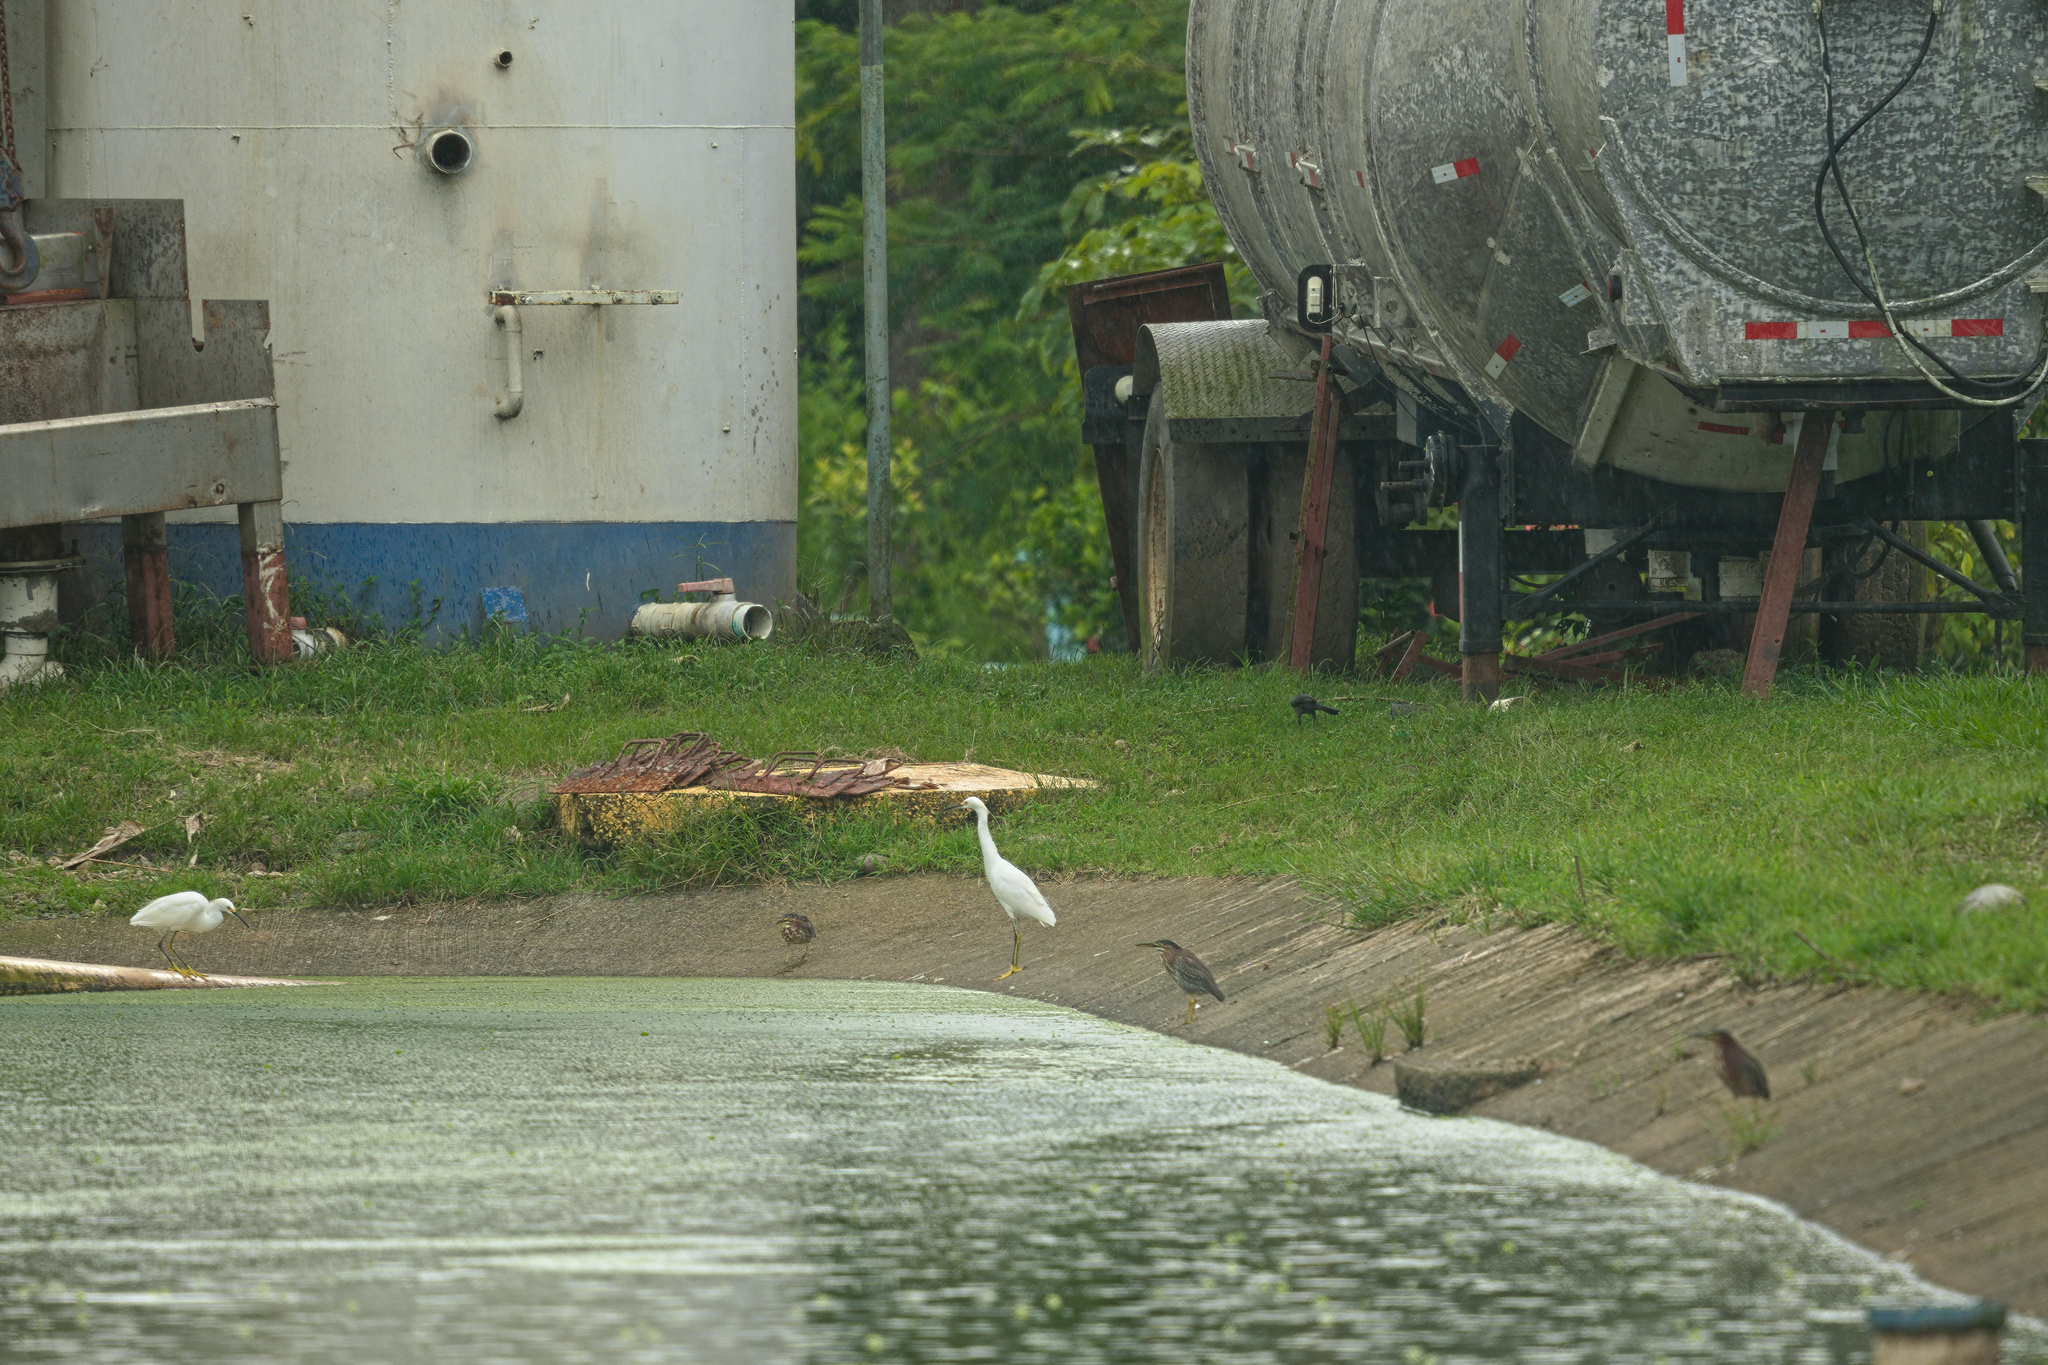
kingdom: Animalia
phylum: Chordata
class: Aves
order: Pelecaniformes
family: Ardeidae
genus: Butorides
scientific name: Butorides virescens
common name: Green heron
